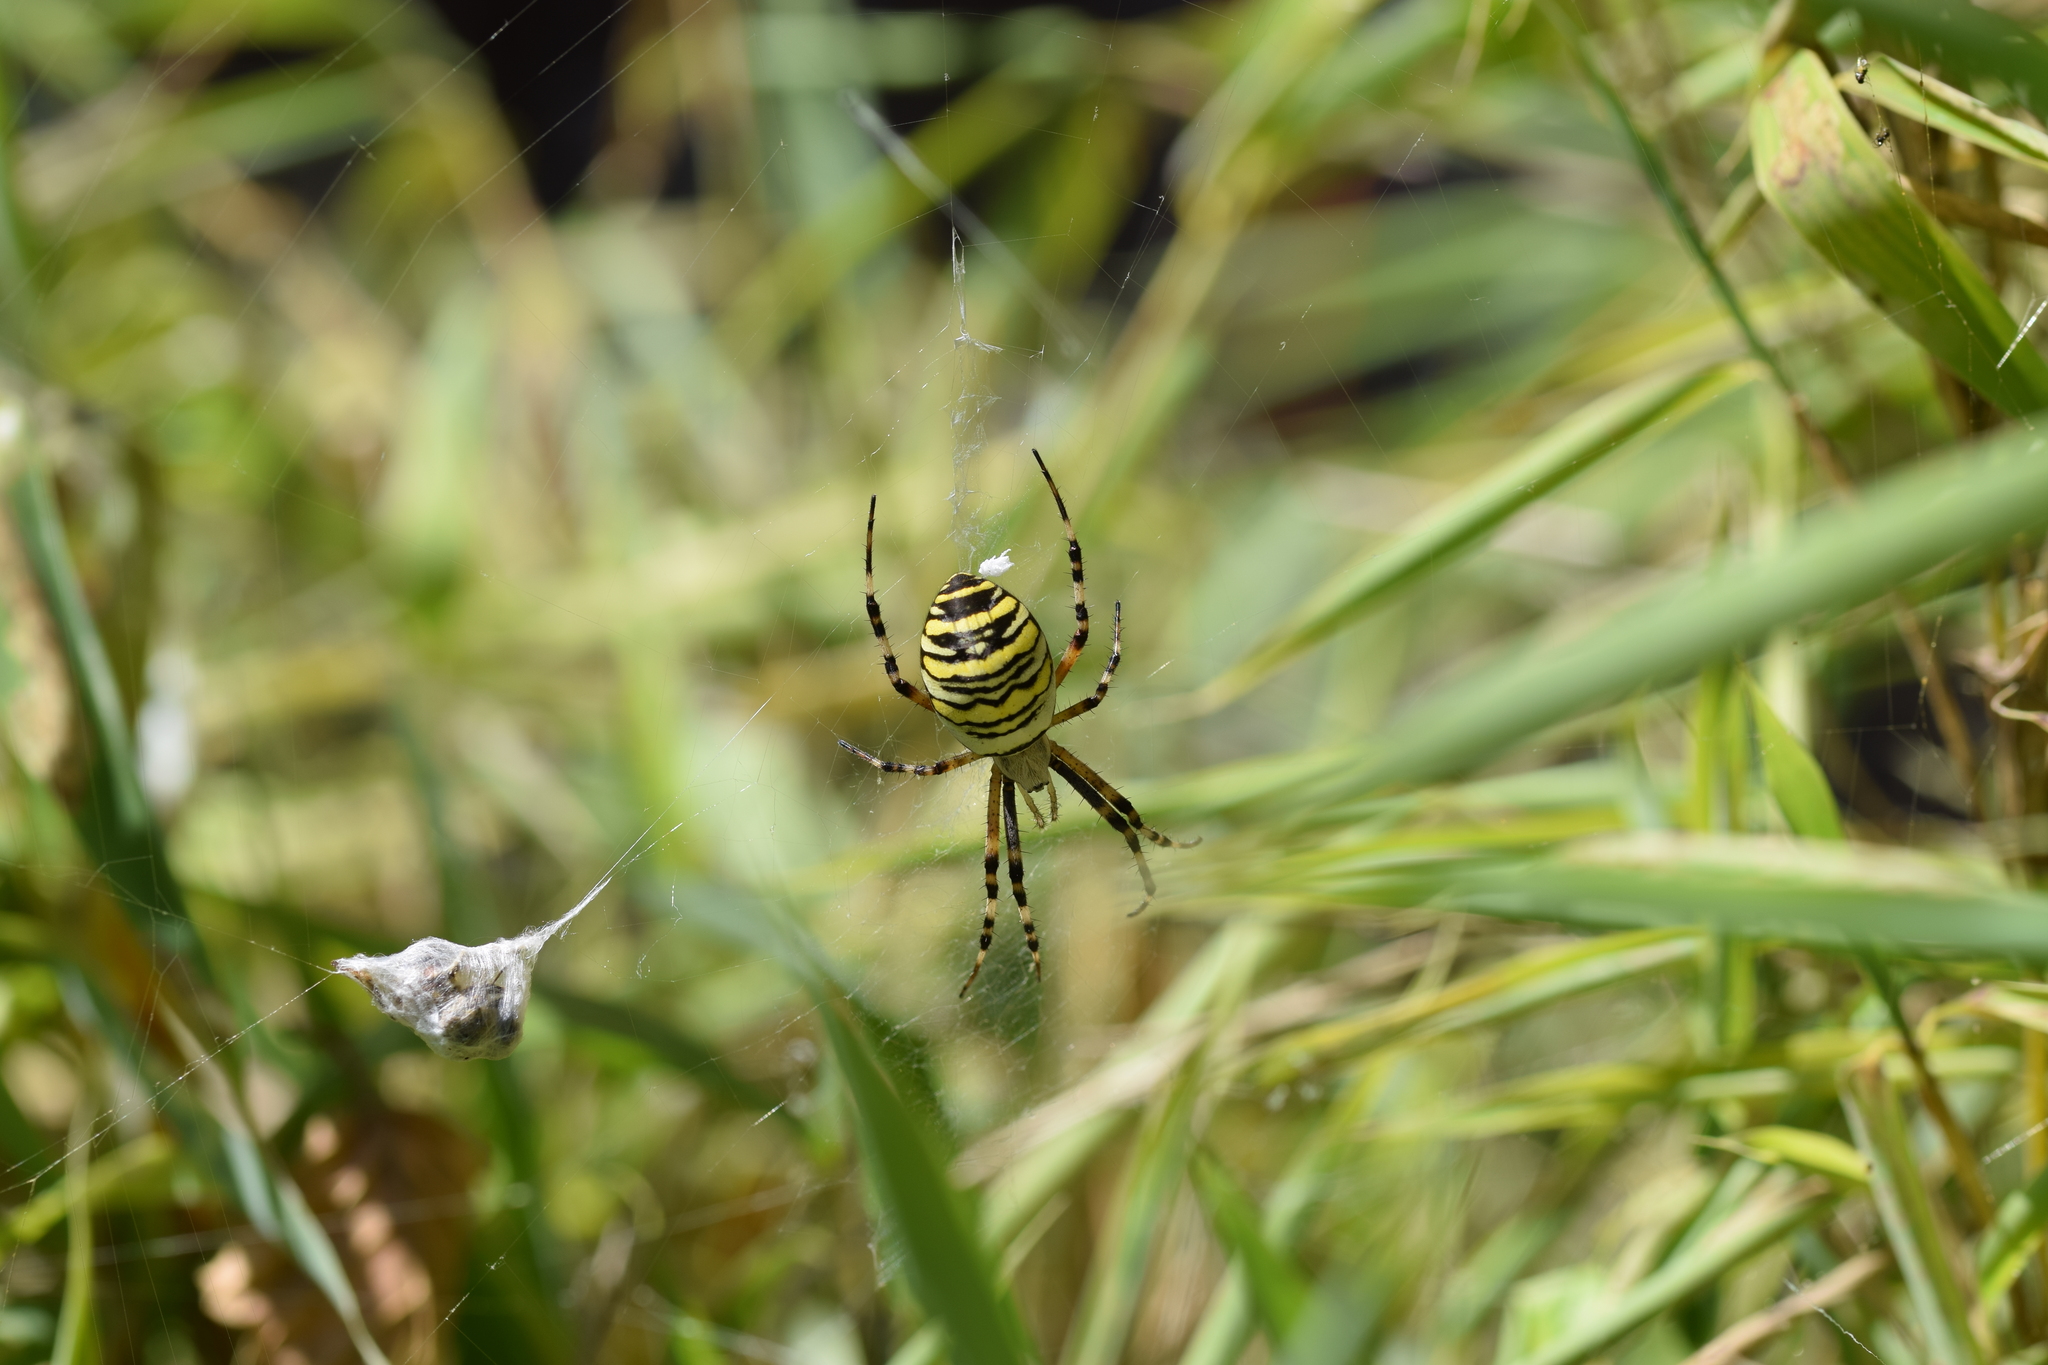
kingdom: Animalia
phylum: Arthropoda
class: Arachnida
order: Araneae
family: Araneidae
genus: Argiope
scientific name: Argiope bruennichi
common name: Wasp spider
